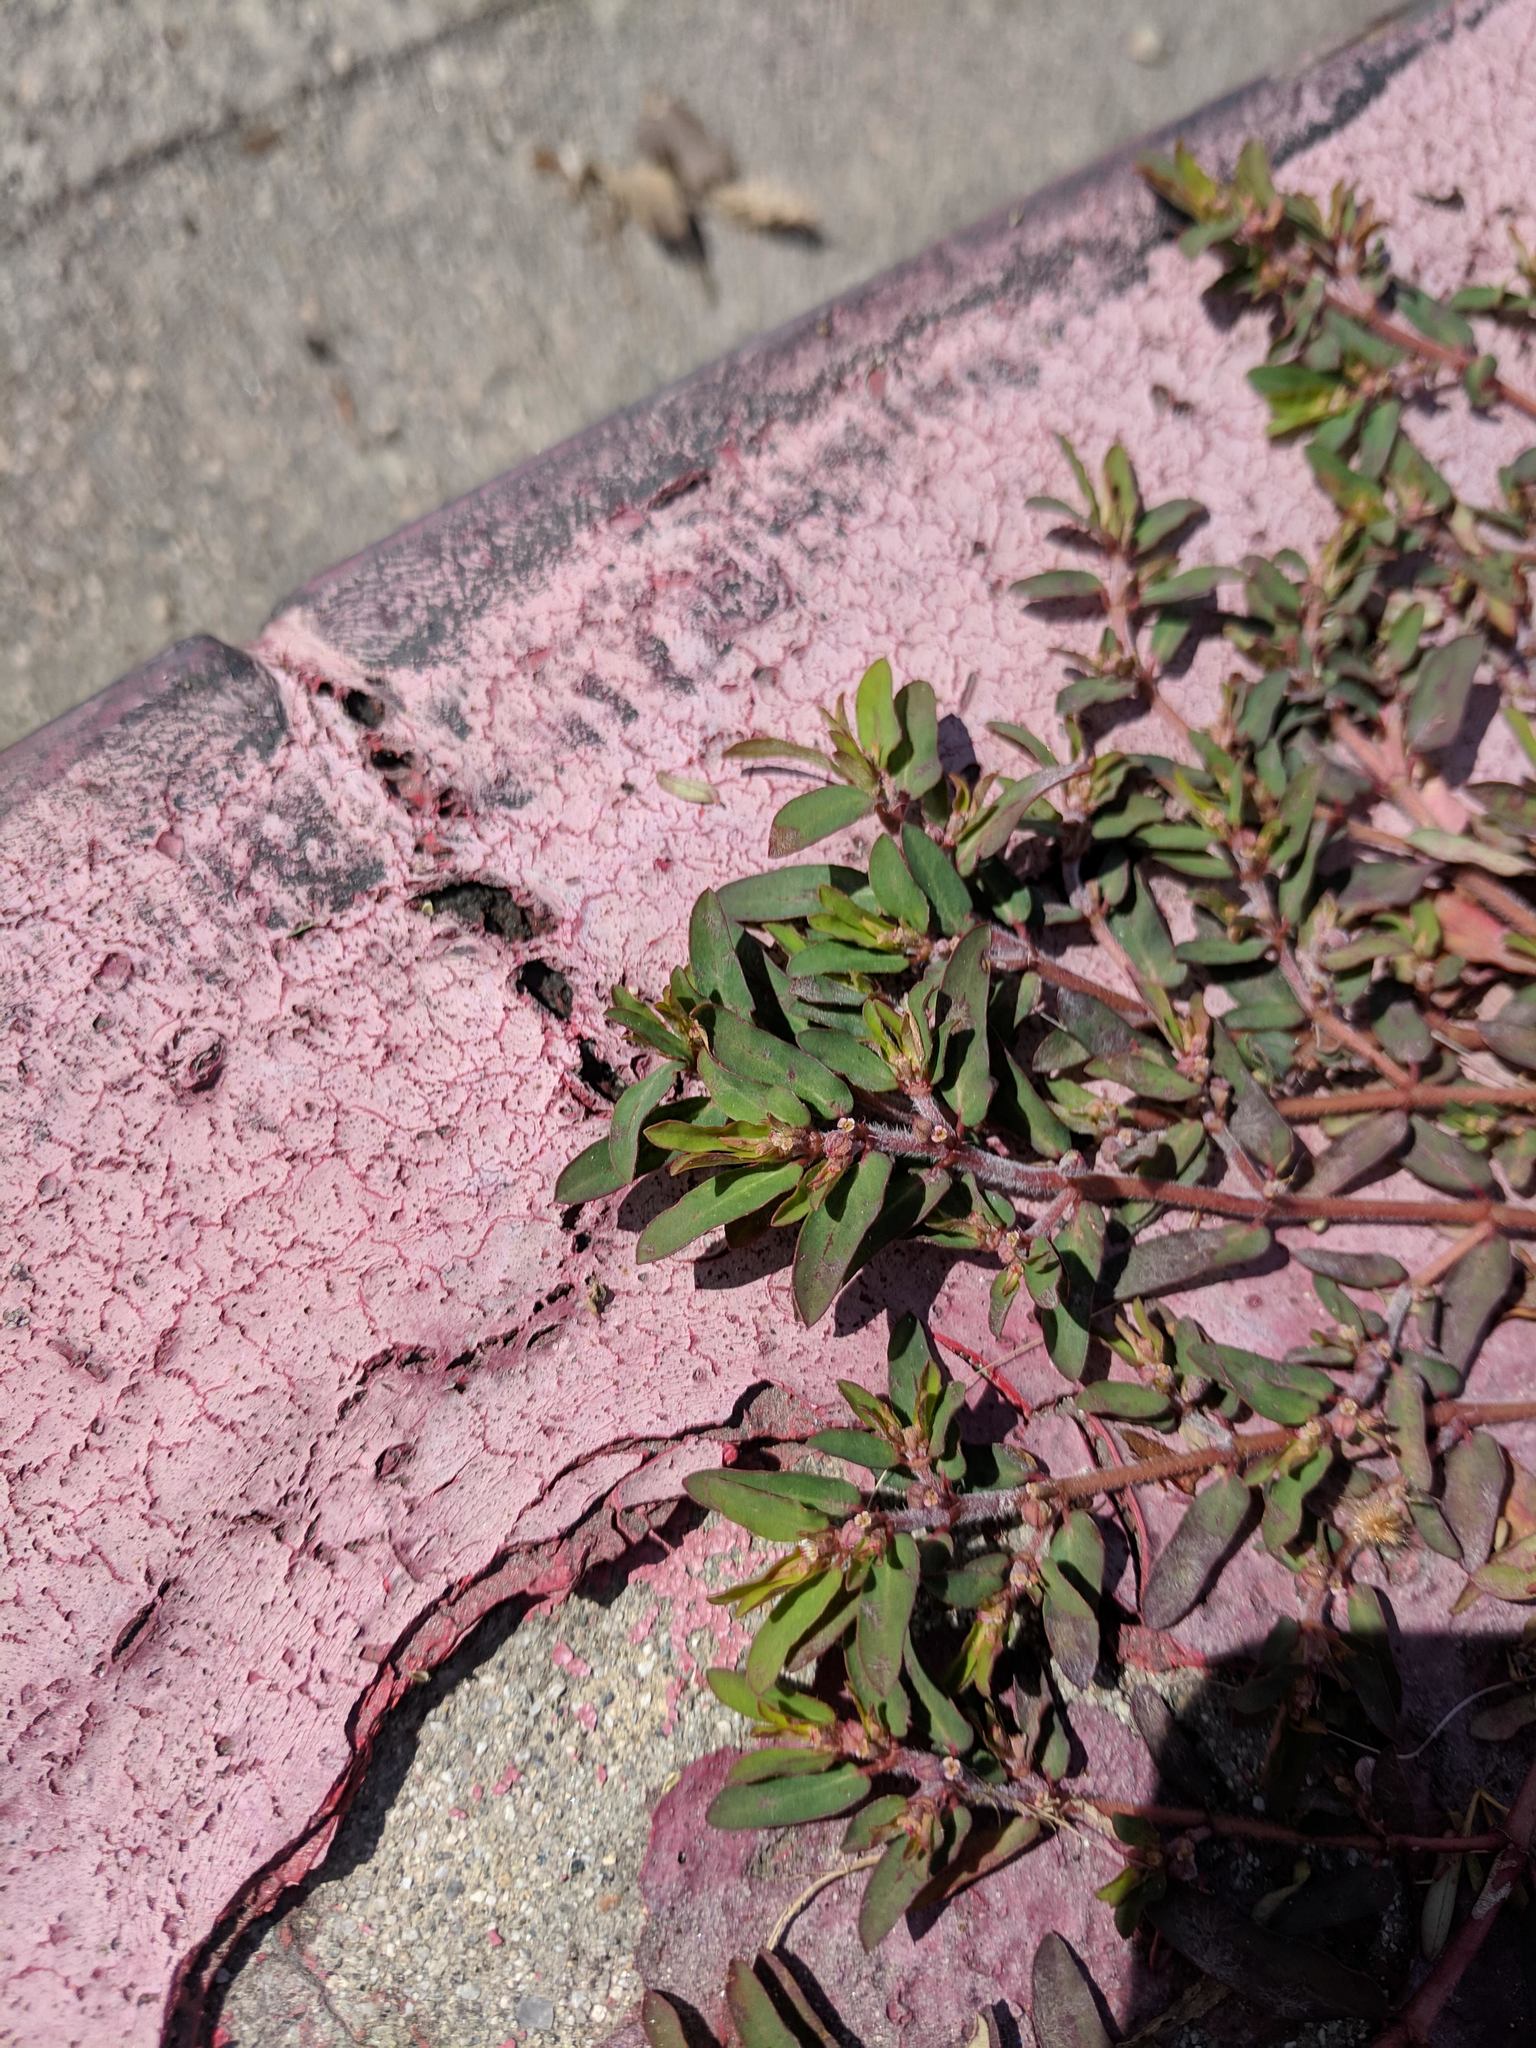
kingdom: Plantae
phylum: Tracheophyta
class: Magnoliopsida
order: Malpighiales
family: Euphorbiaceae
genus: Euphorbia
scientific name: Euphorbia maculata
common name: Spotted spurge
